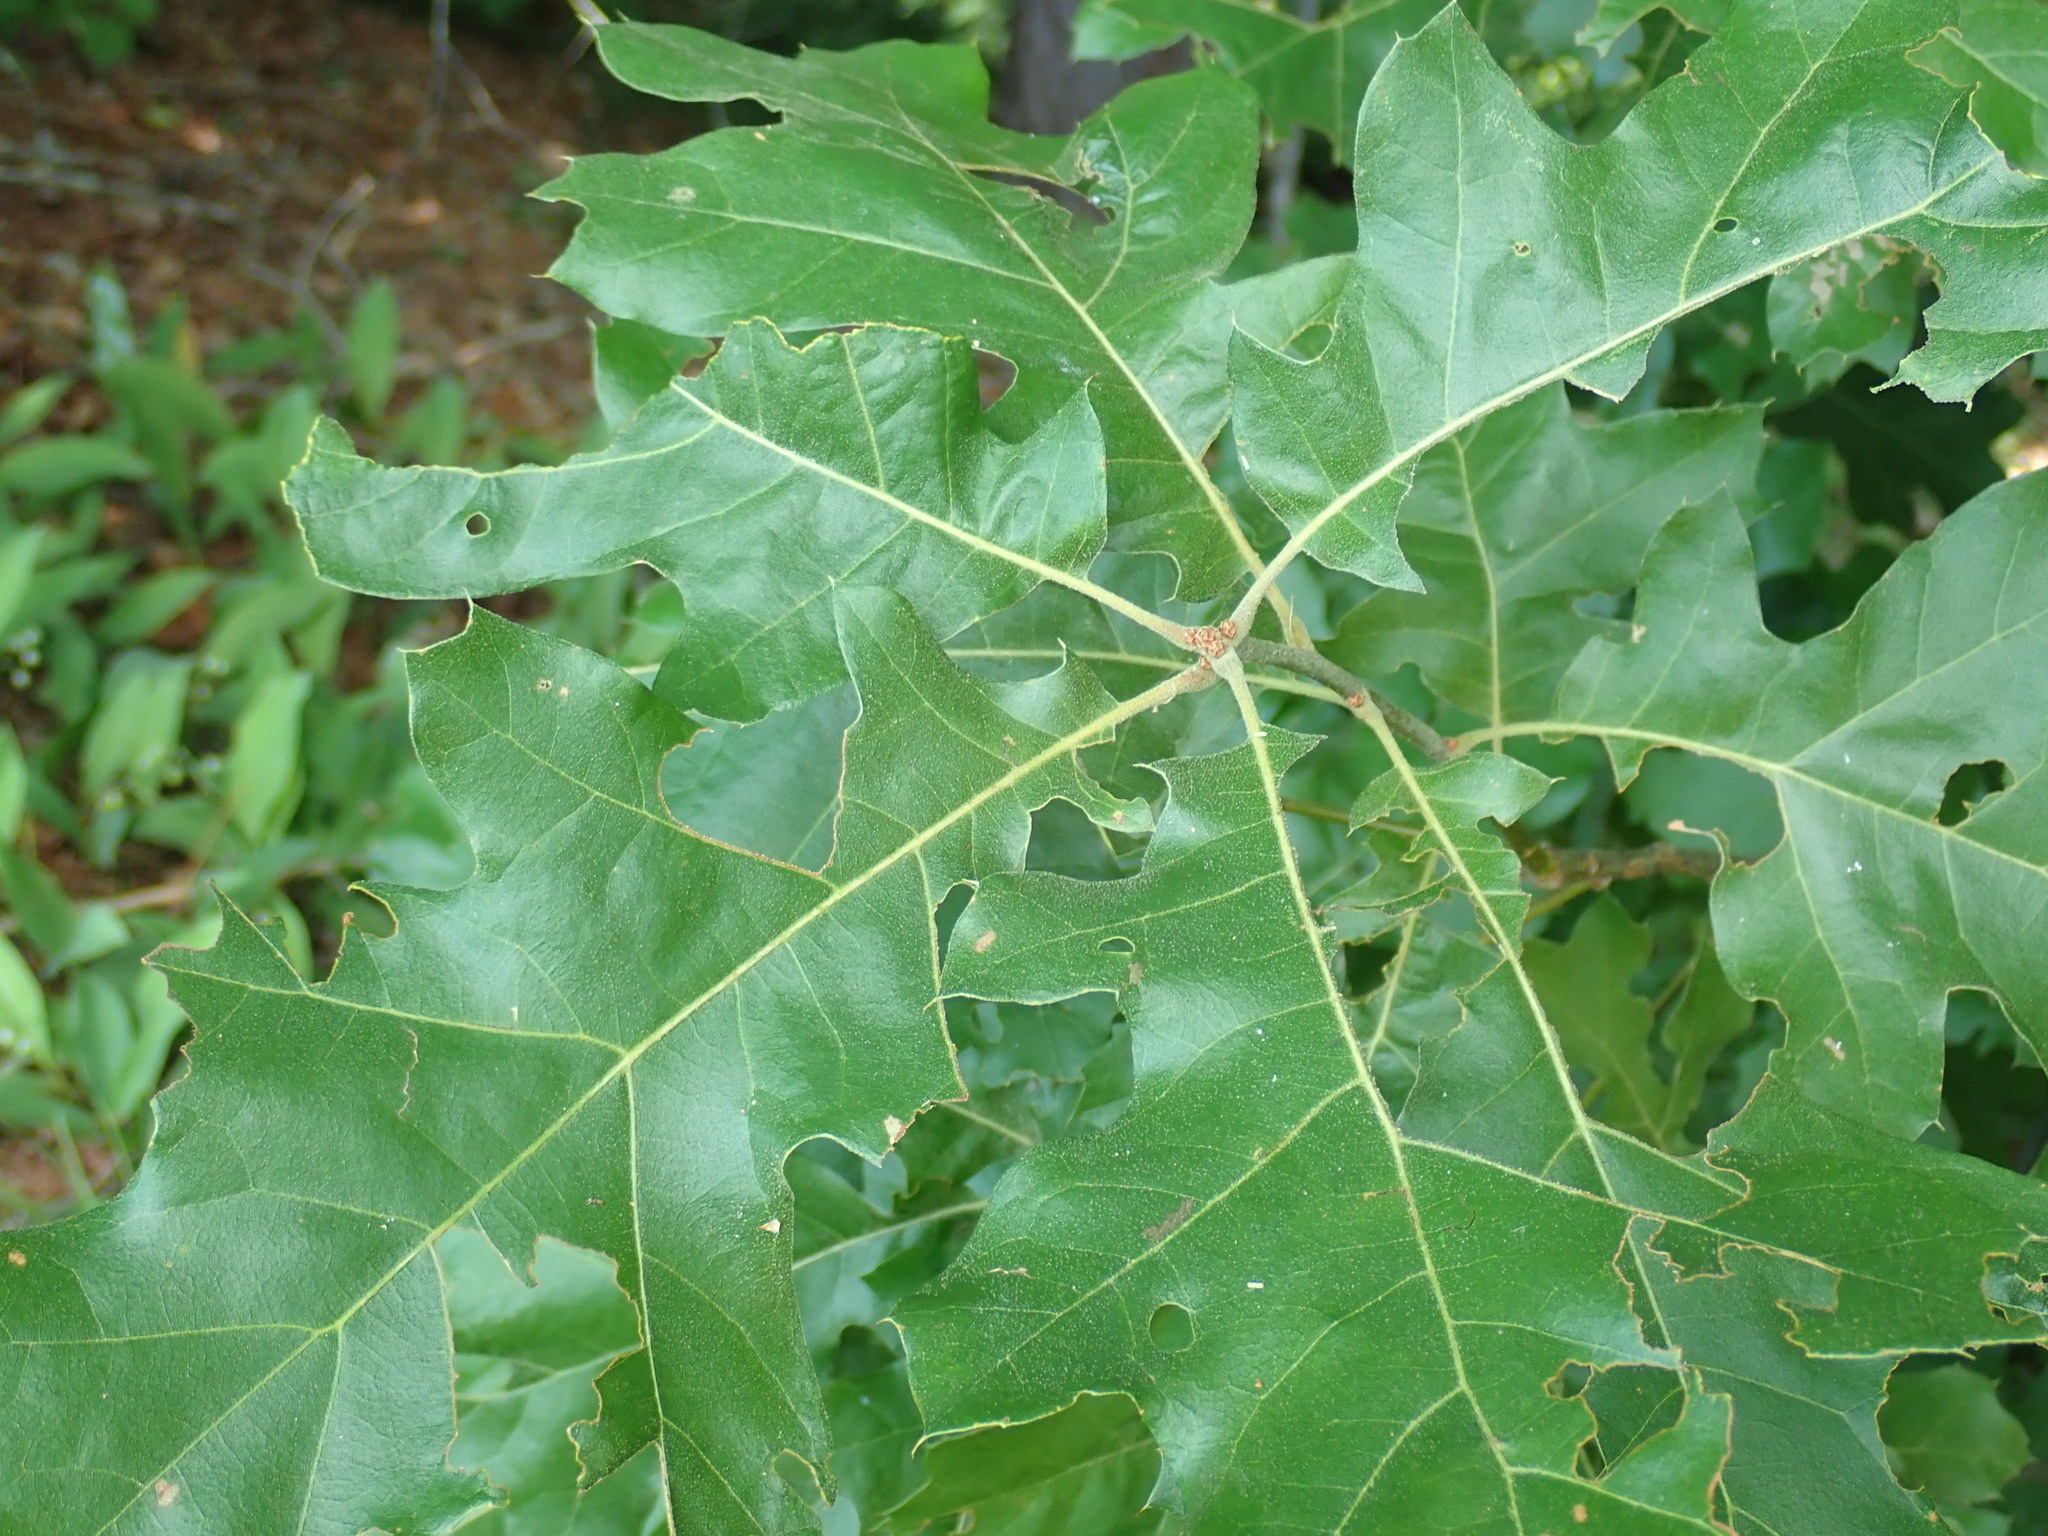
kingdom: Animalia
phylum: Arthropoda
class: Insecta
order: Hymenoptera
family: Cynipidae
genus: Kokkocynips
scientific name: Kokkocynips rileyi
